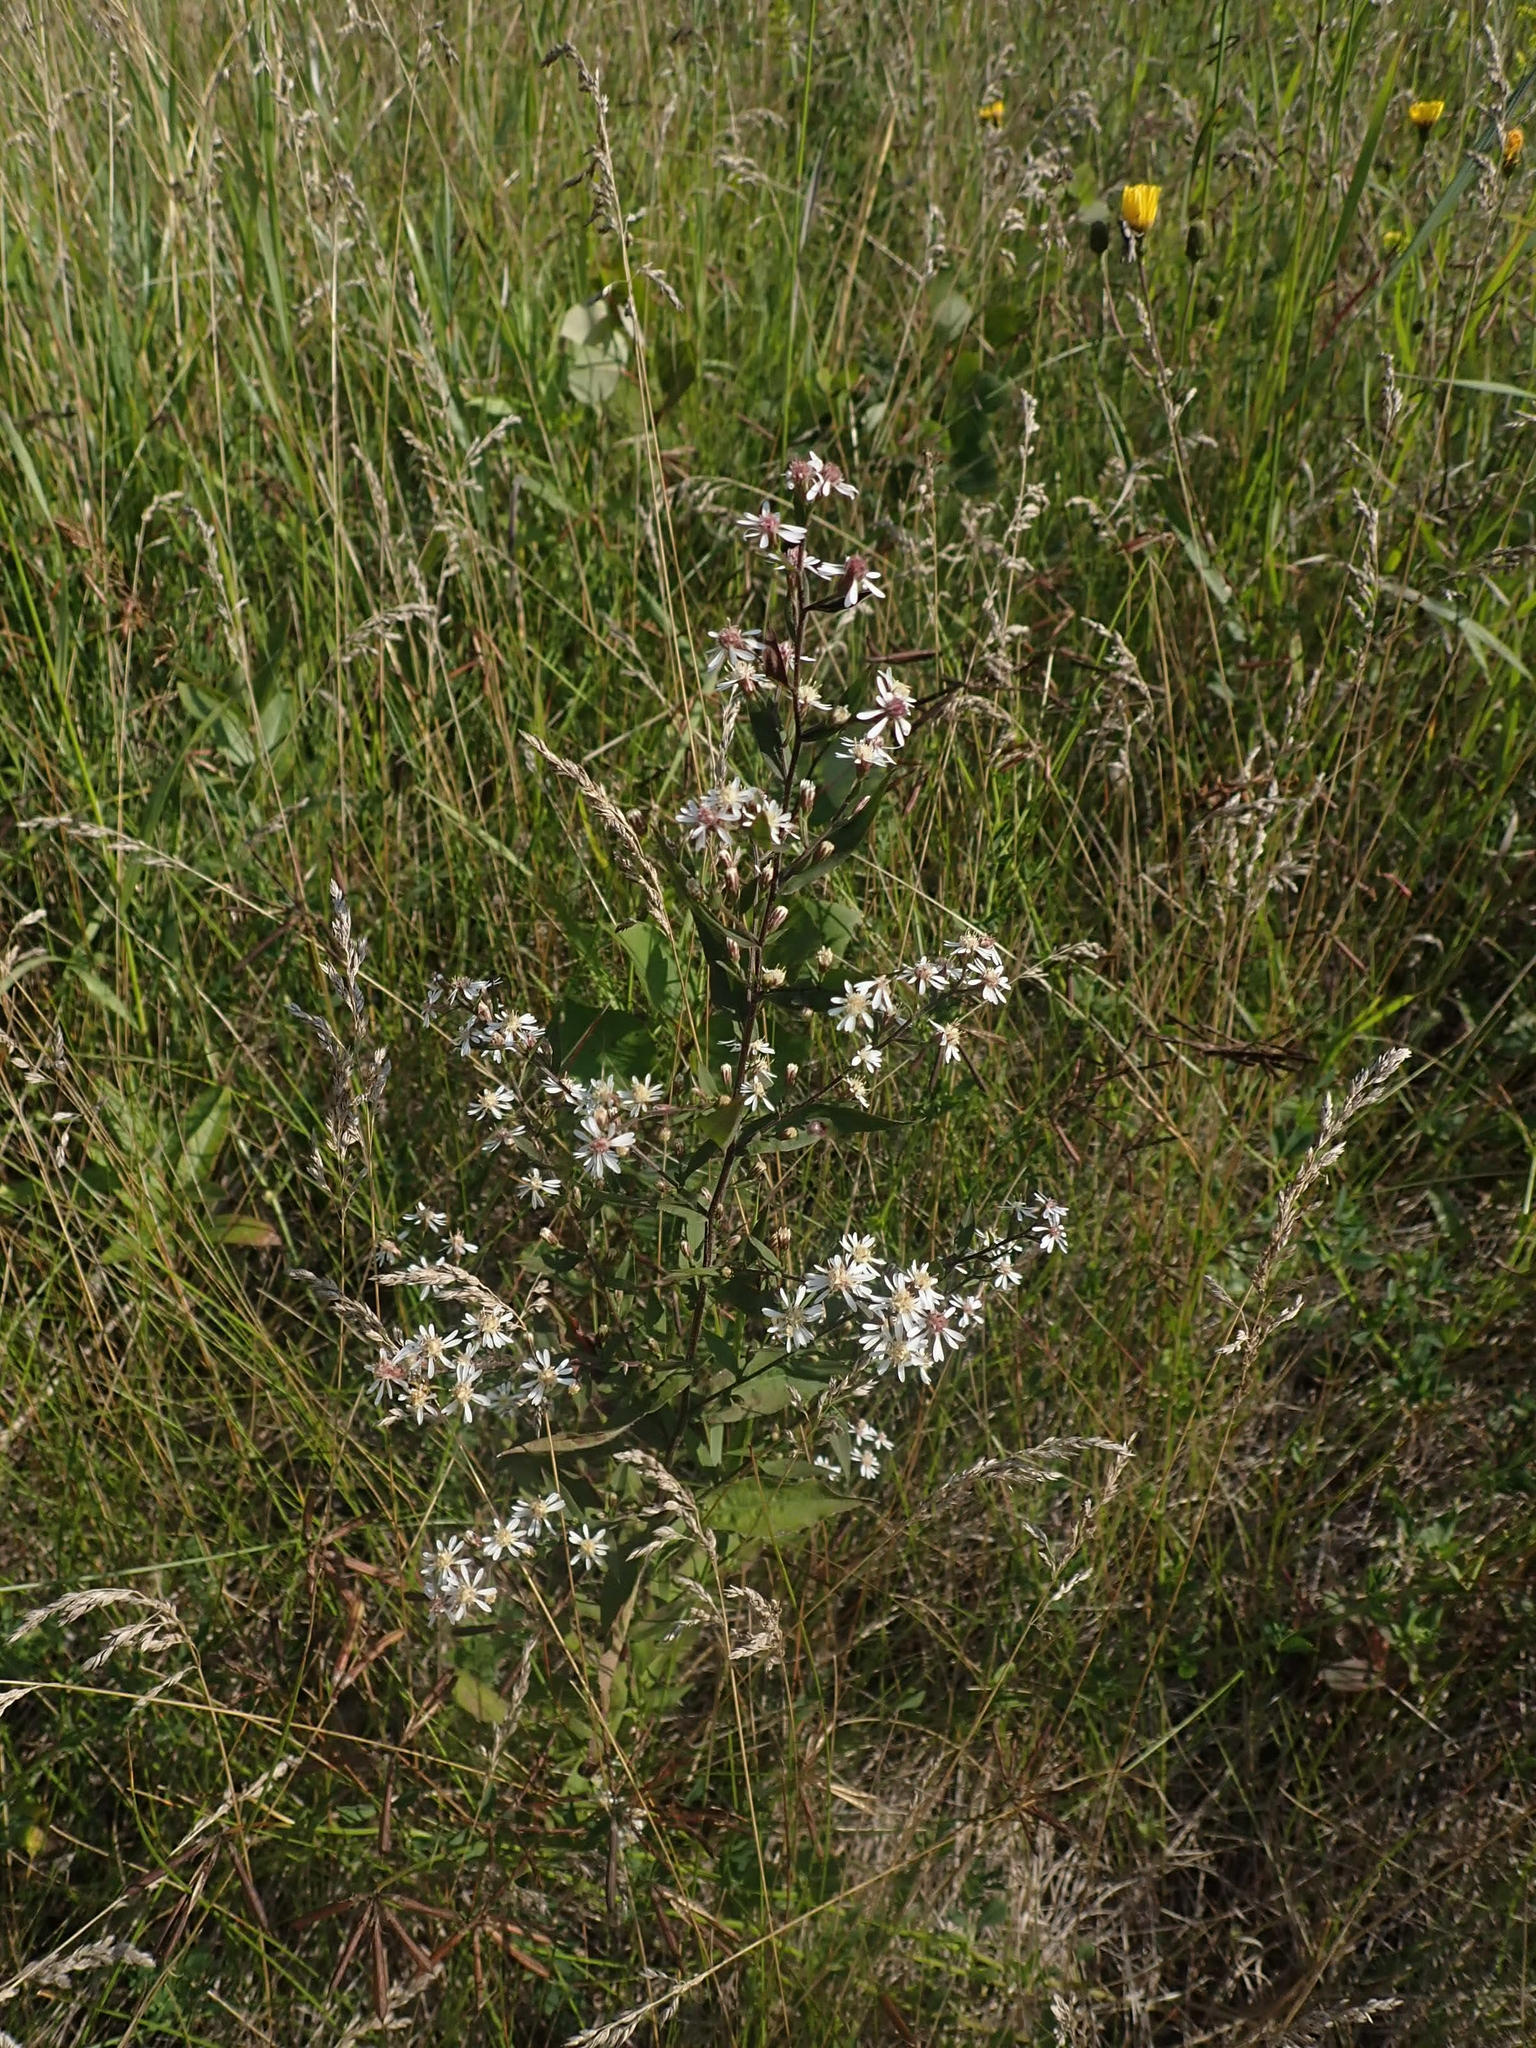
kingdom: Plantae
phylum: Tracheophyta
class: Magnoliopsida
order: Asterales
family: Asteraceae
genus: Symphyotrichum
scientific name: Symphyotrichum lateriflorum
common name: Calico aster
